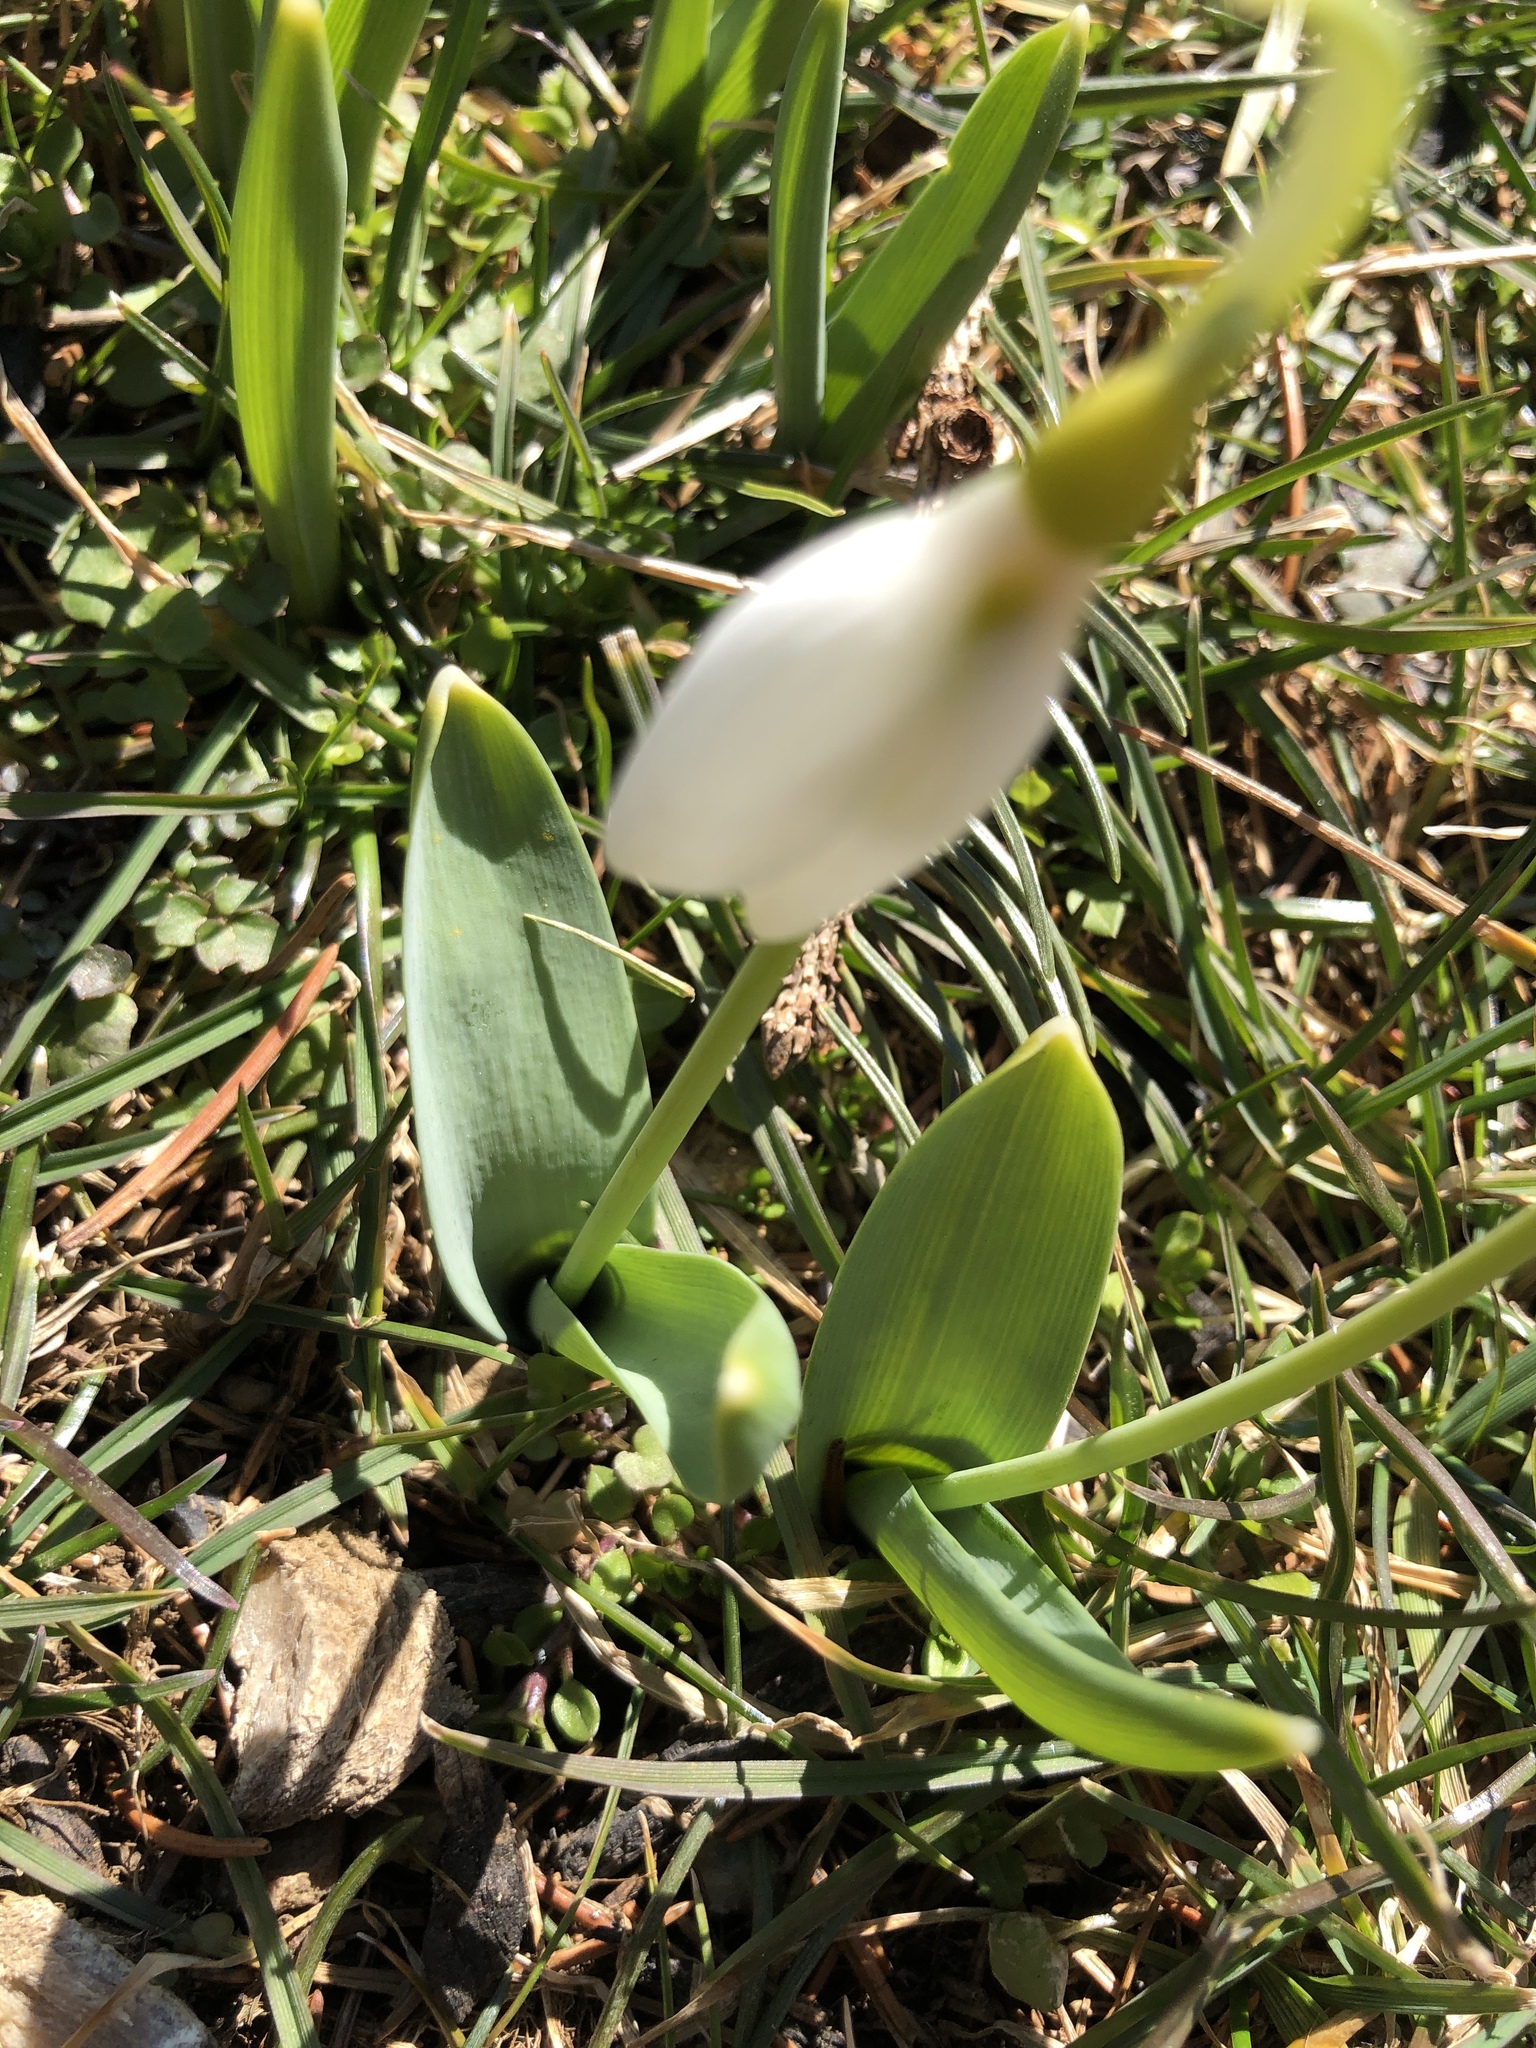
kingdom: Plantae
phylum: Tracheophyta
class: Liliopsida
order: Asparagales
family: Amaryllidaceae
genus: Galanthus
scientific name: Galanthus elwesii
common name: Greater snowdrop
